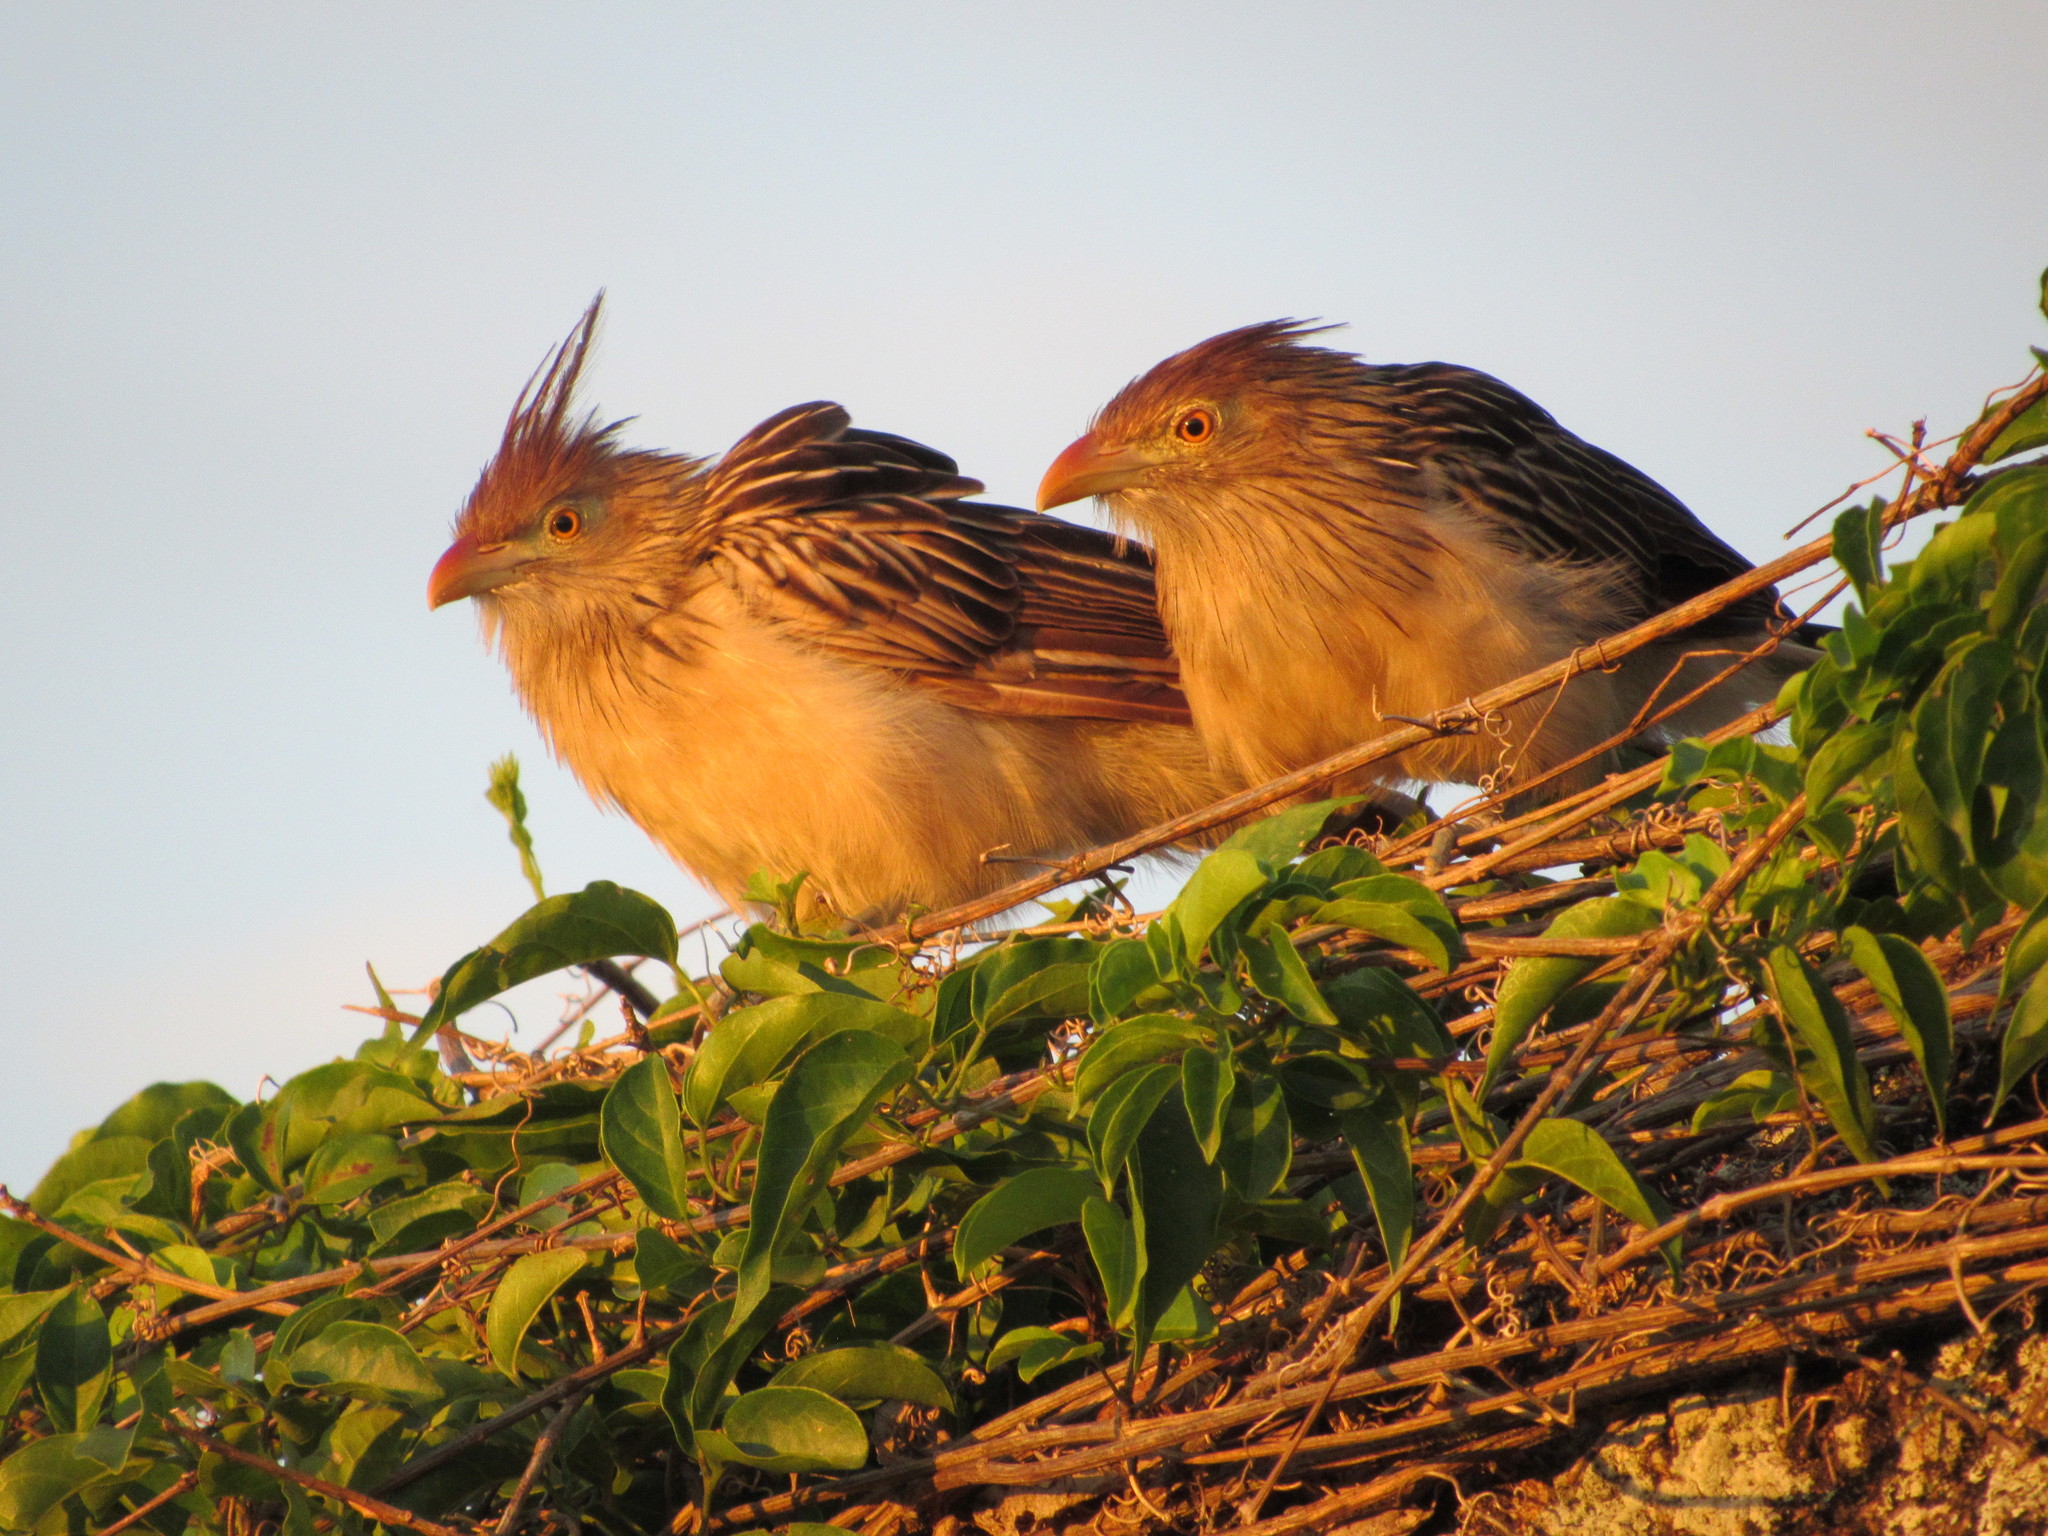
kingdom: Animalia
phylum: Chordata
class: Aves
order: Cuculiformes
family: Cuculidae
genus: Guira
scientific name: Guira guira
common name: Guira cuckoo
